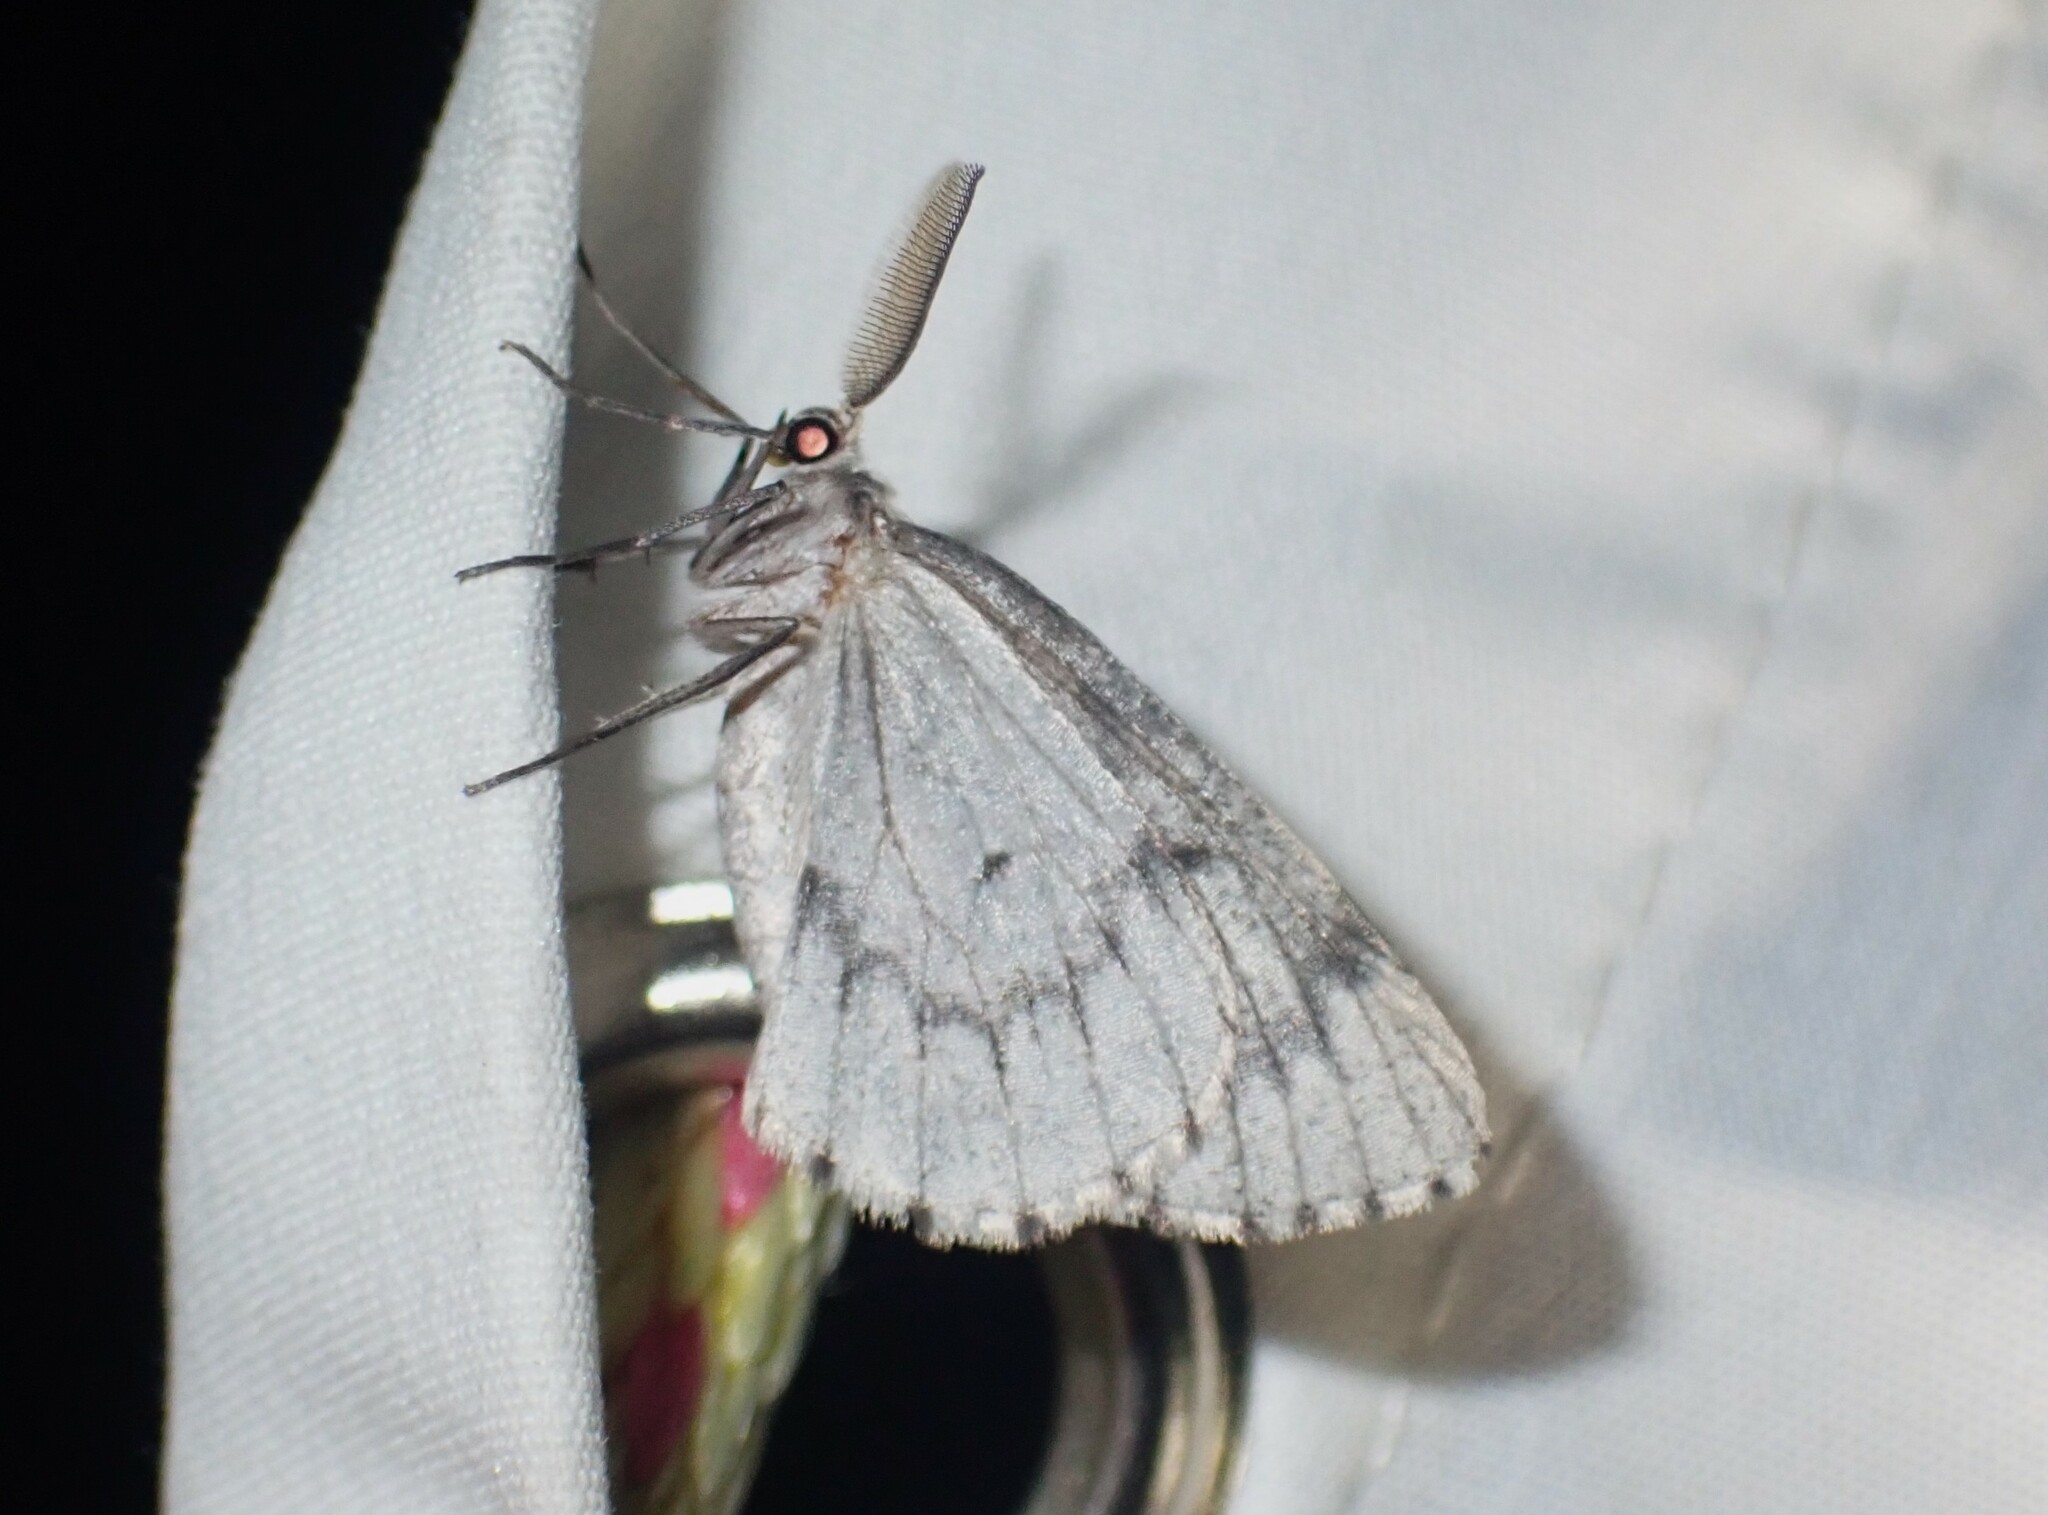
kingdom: Animalia
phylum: Arthropoda
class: Insecta
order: Lepidoptera
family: Geometridae
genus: Nepytia
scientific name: Nepytia canosaria
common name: False hemlock looper
